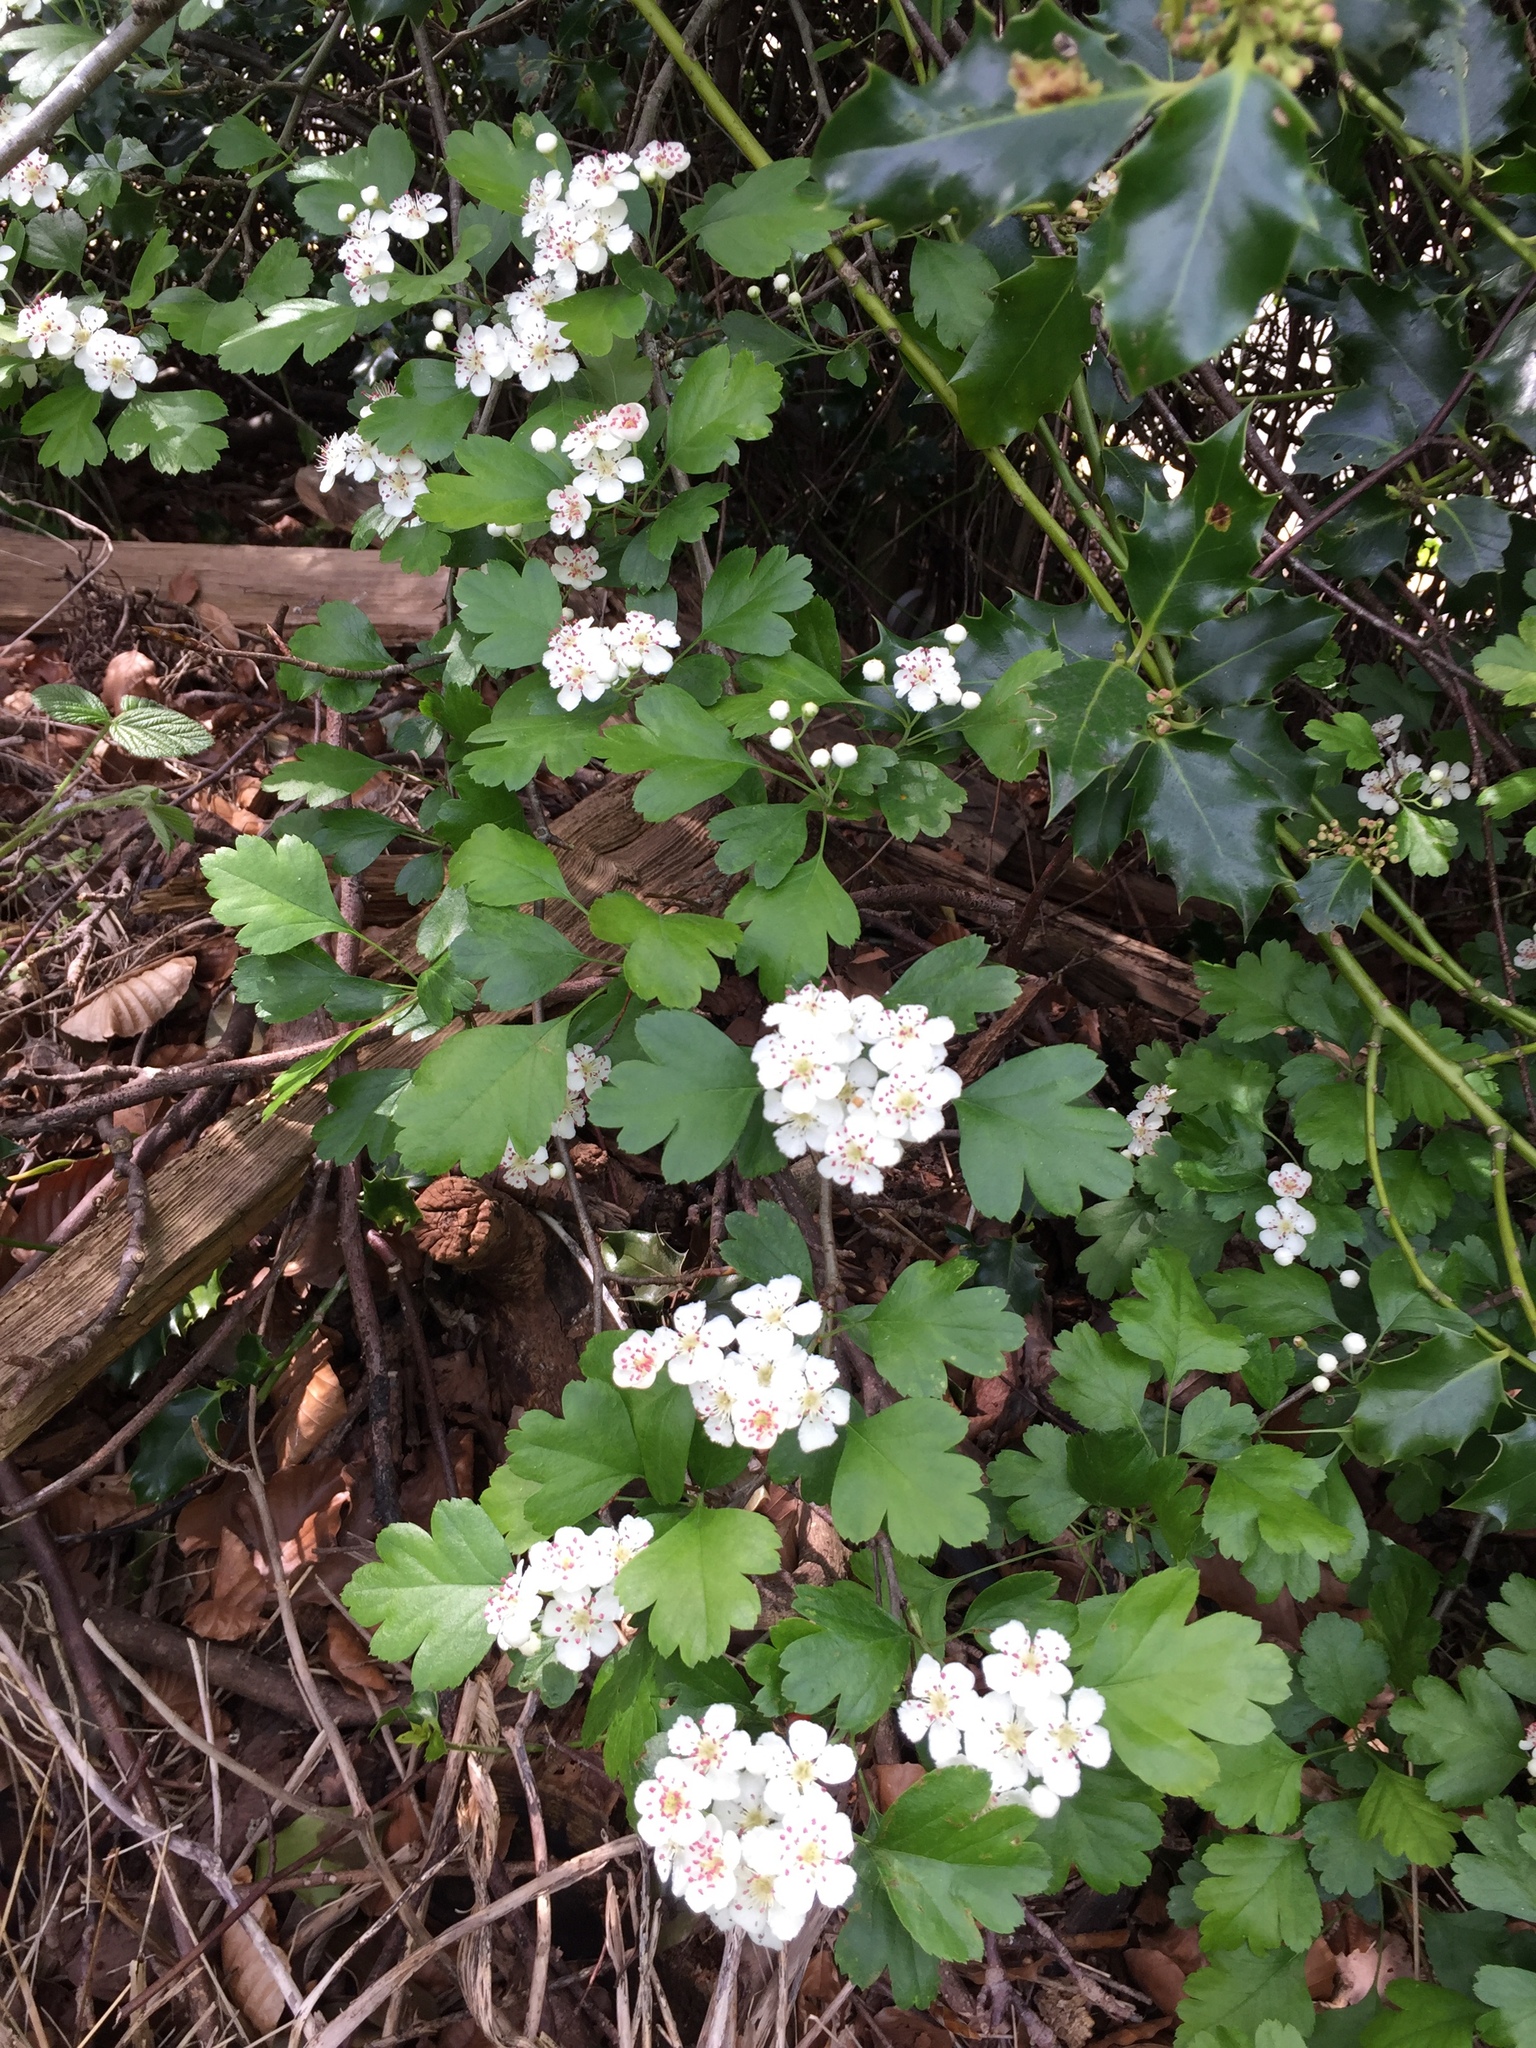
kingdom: Plantae
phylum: Tracheophyta
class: Magnoliopsida
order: Rosales
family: Rosaceae
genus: Crataegus
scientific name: Crataegus monogyna
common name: Hawthorn
